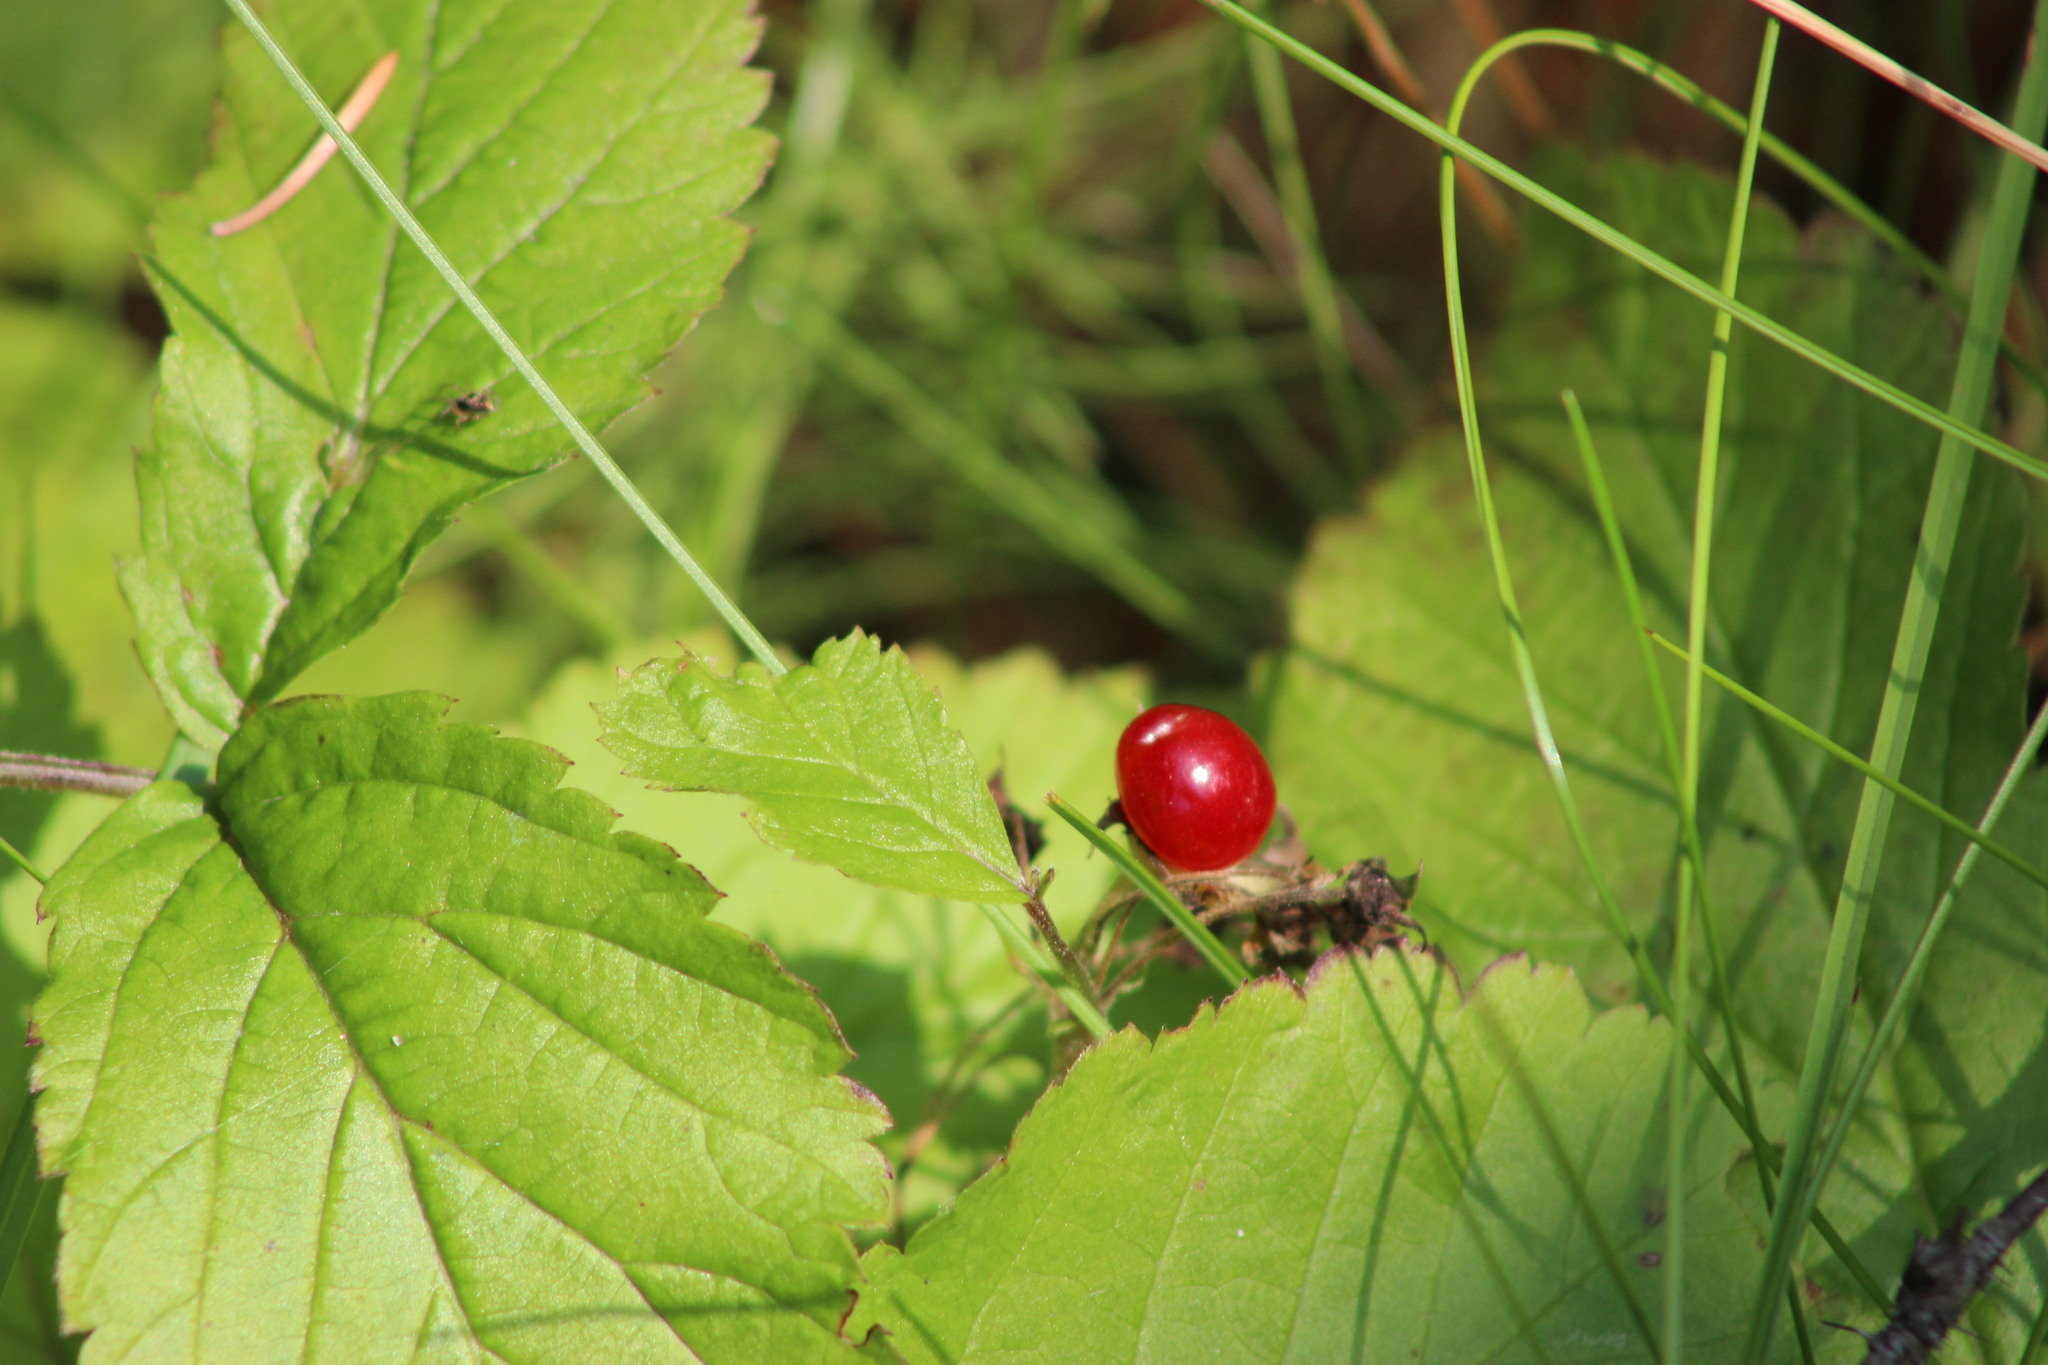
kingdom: Plantae
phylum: Tracheophyta
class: Magnoliopsida
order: Rosales
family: Rosaceae
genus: Rubus
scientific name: Rubus saxatilis
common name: Stone bramble
